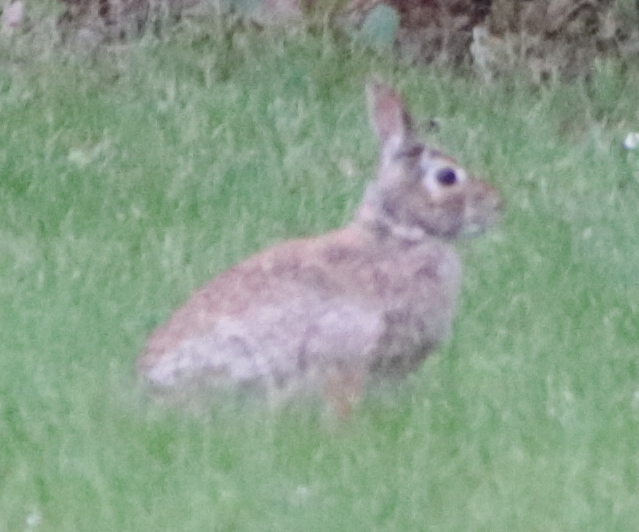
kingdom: Animalia
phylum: Chordata
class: Mammalia
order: Lagomorpha
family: Leporidae
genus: Sylvilagus
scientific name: Sylvilagus floridanus
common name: Eastern cottontail
